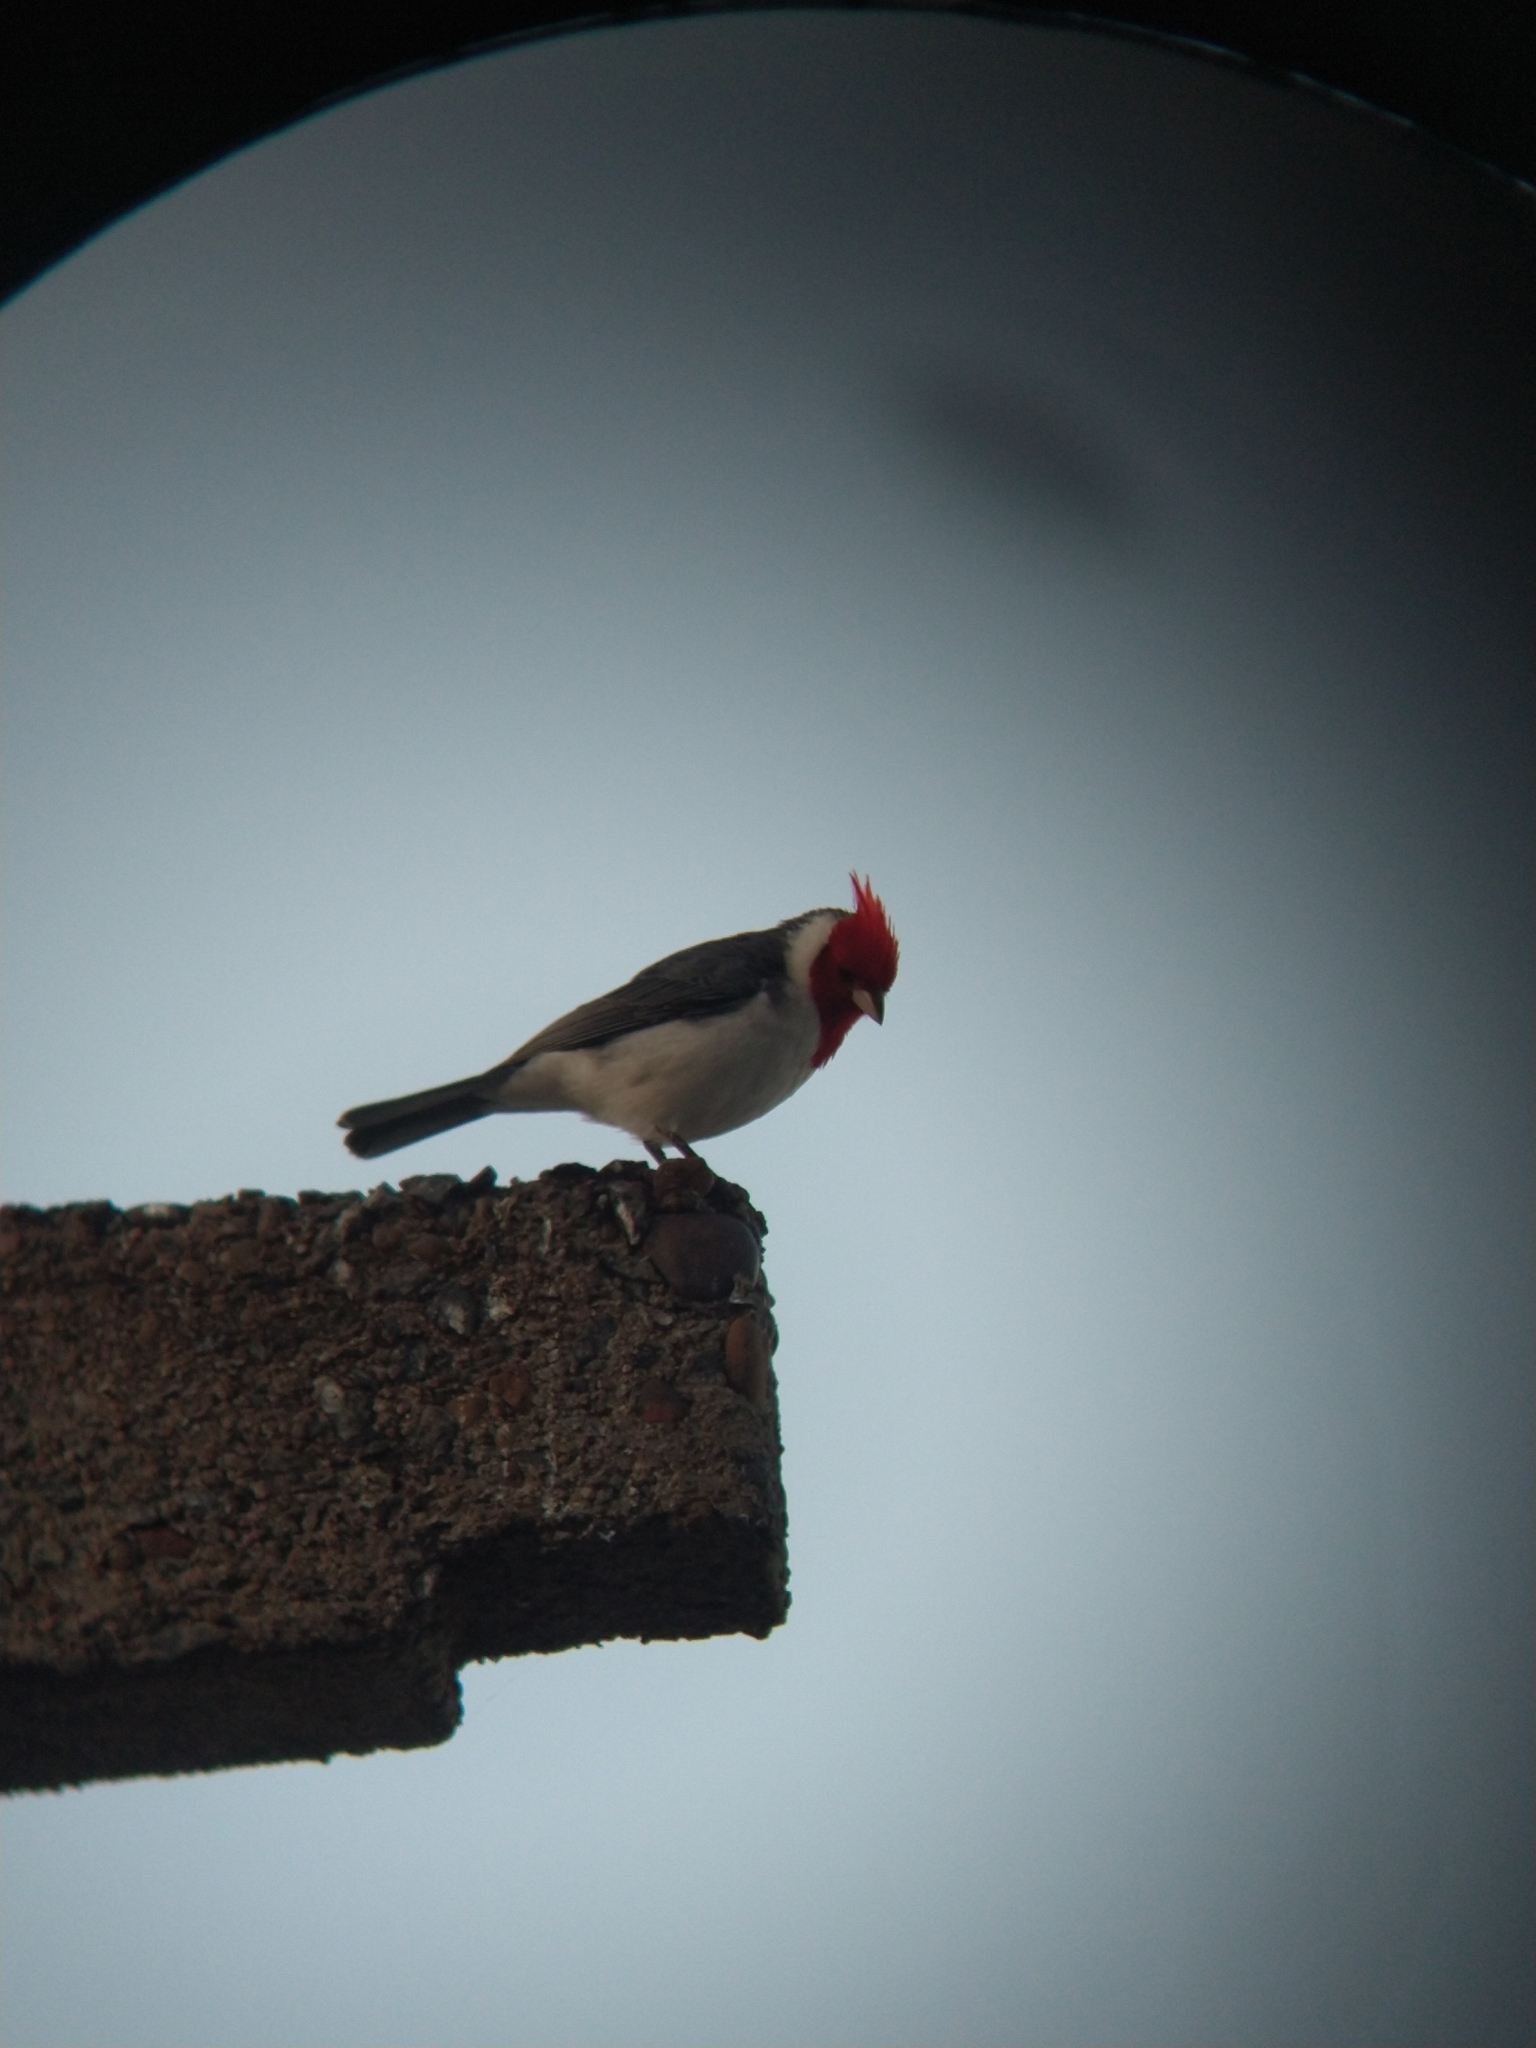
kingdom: Animalia
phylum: Chordata
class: Aves
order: Passeriformes
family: Thraupidae
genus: Paroaria
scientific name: Paroaria coronata
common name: Red-crested cardinal
